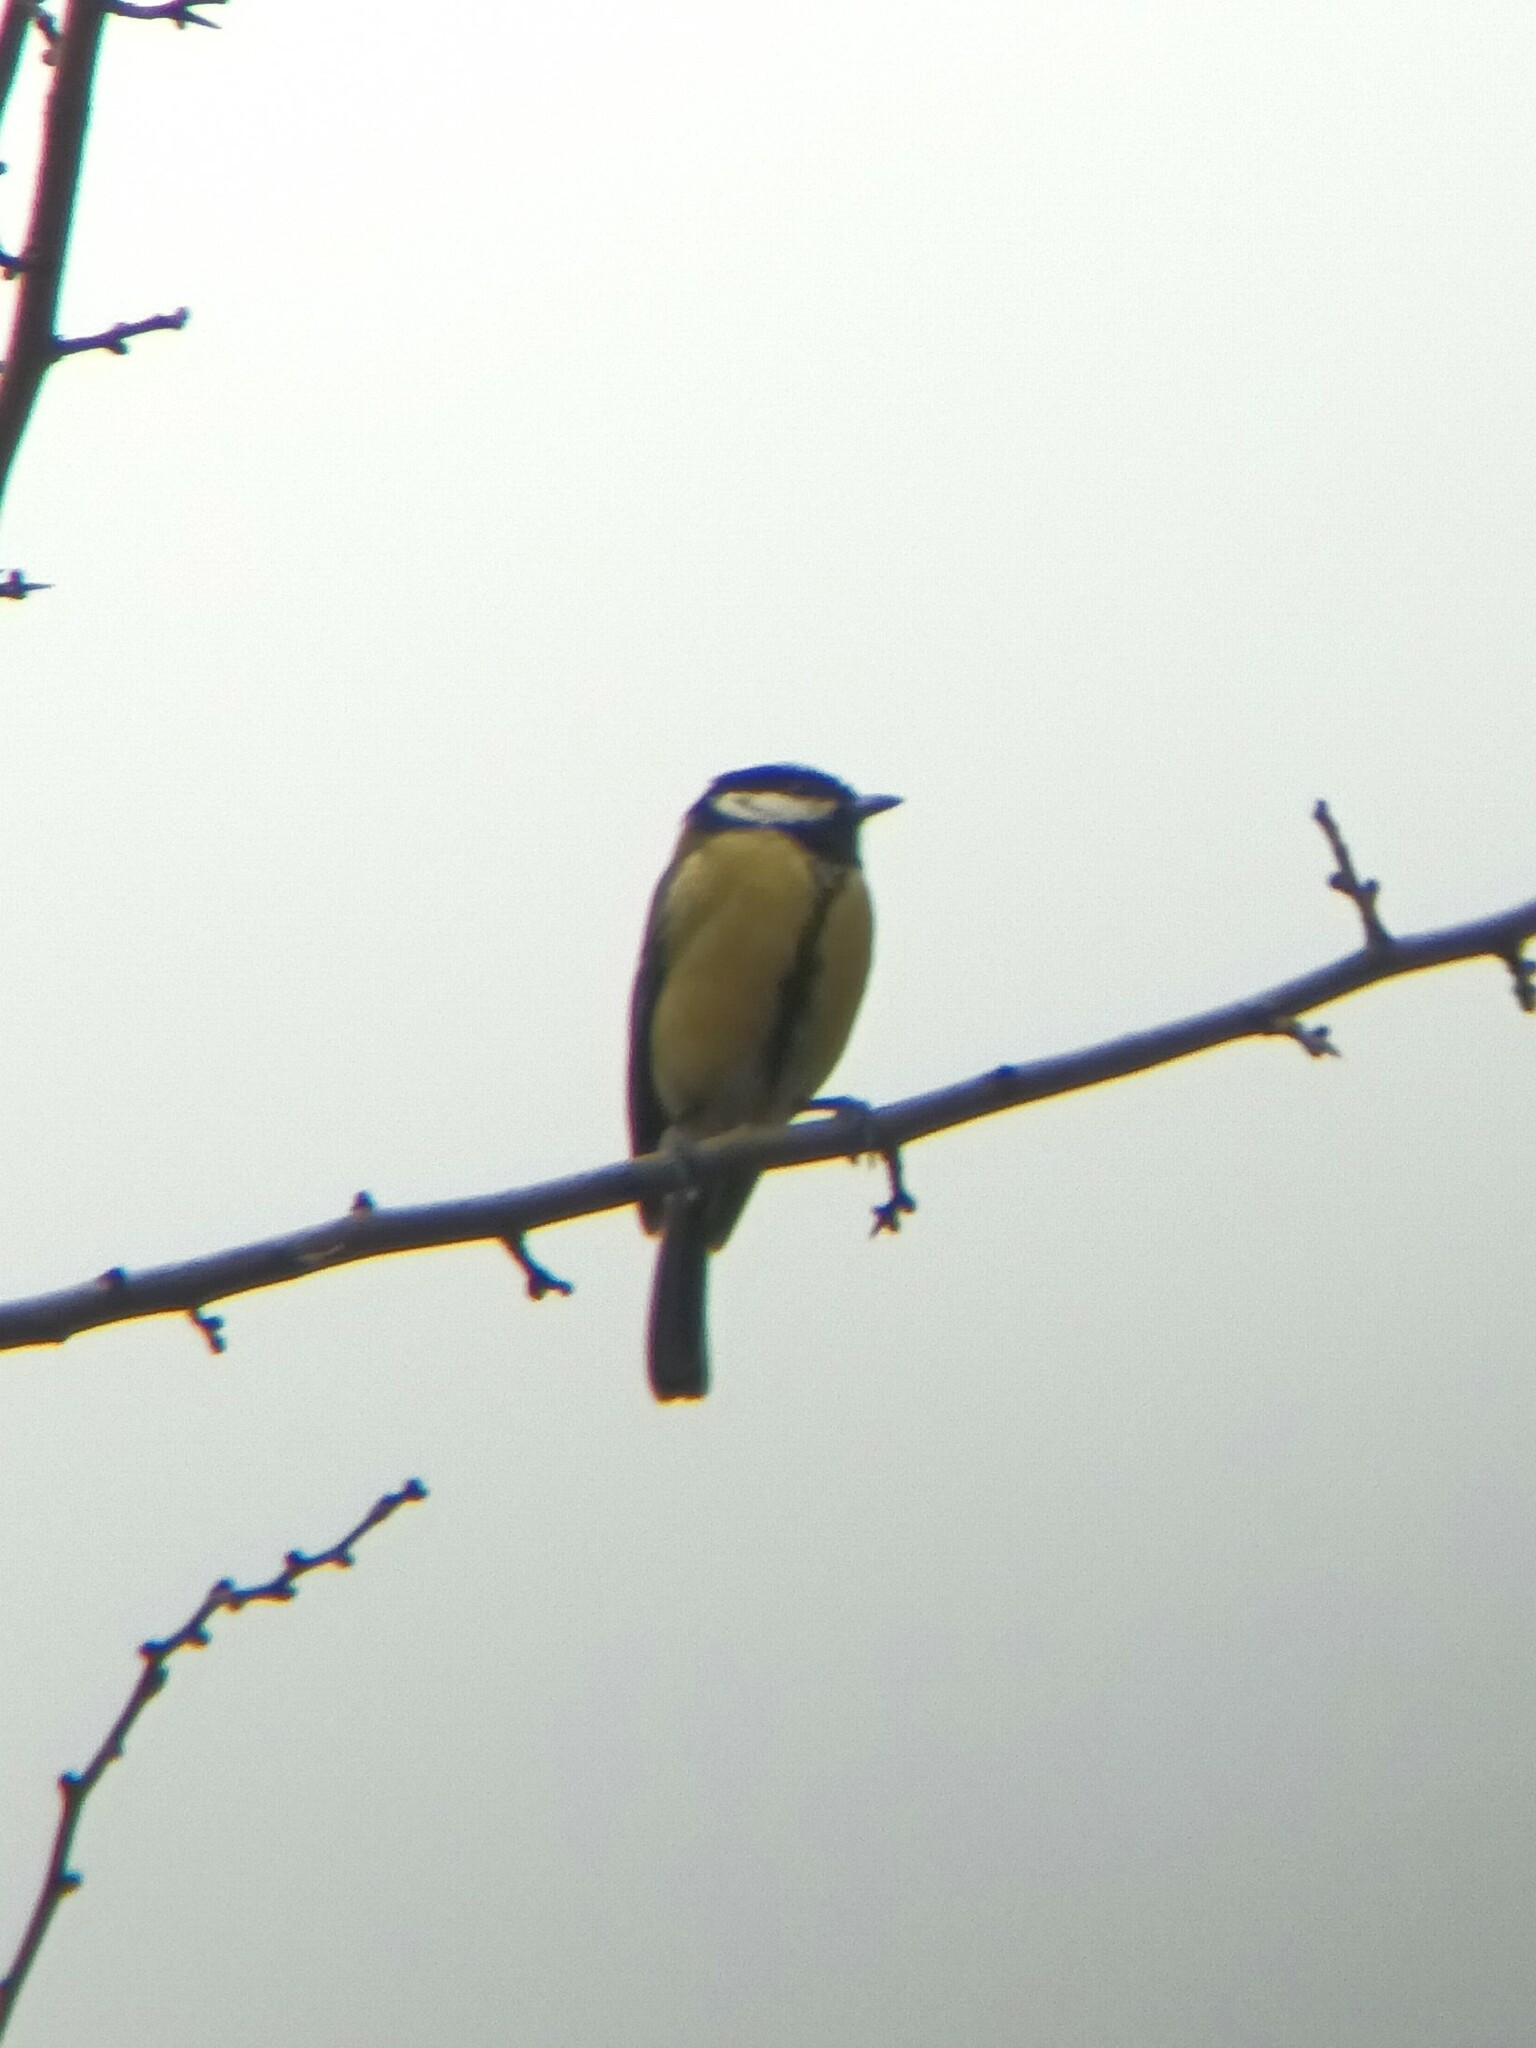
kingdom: Animalia
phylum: Chordata
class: Aves
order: Passeriformes
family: Paridae
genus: Parus
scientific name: Parus major
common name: Great tit
